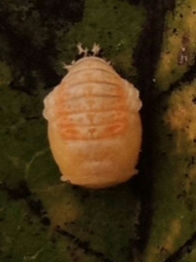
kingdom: Animalia
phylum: Arthropoda
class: Insecta
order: Coleoptera
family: Coccinellidae
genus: Harmonia
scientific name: Harmonia axyridis
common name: Harlequin ladybird
